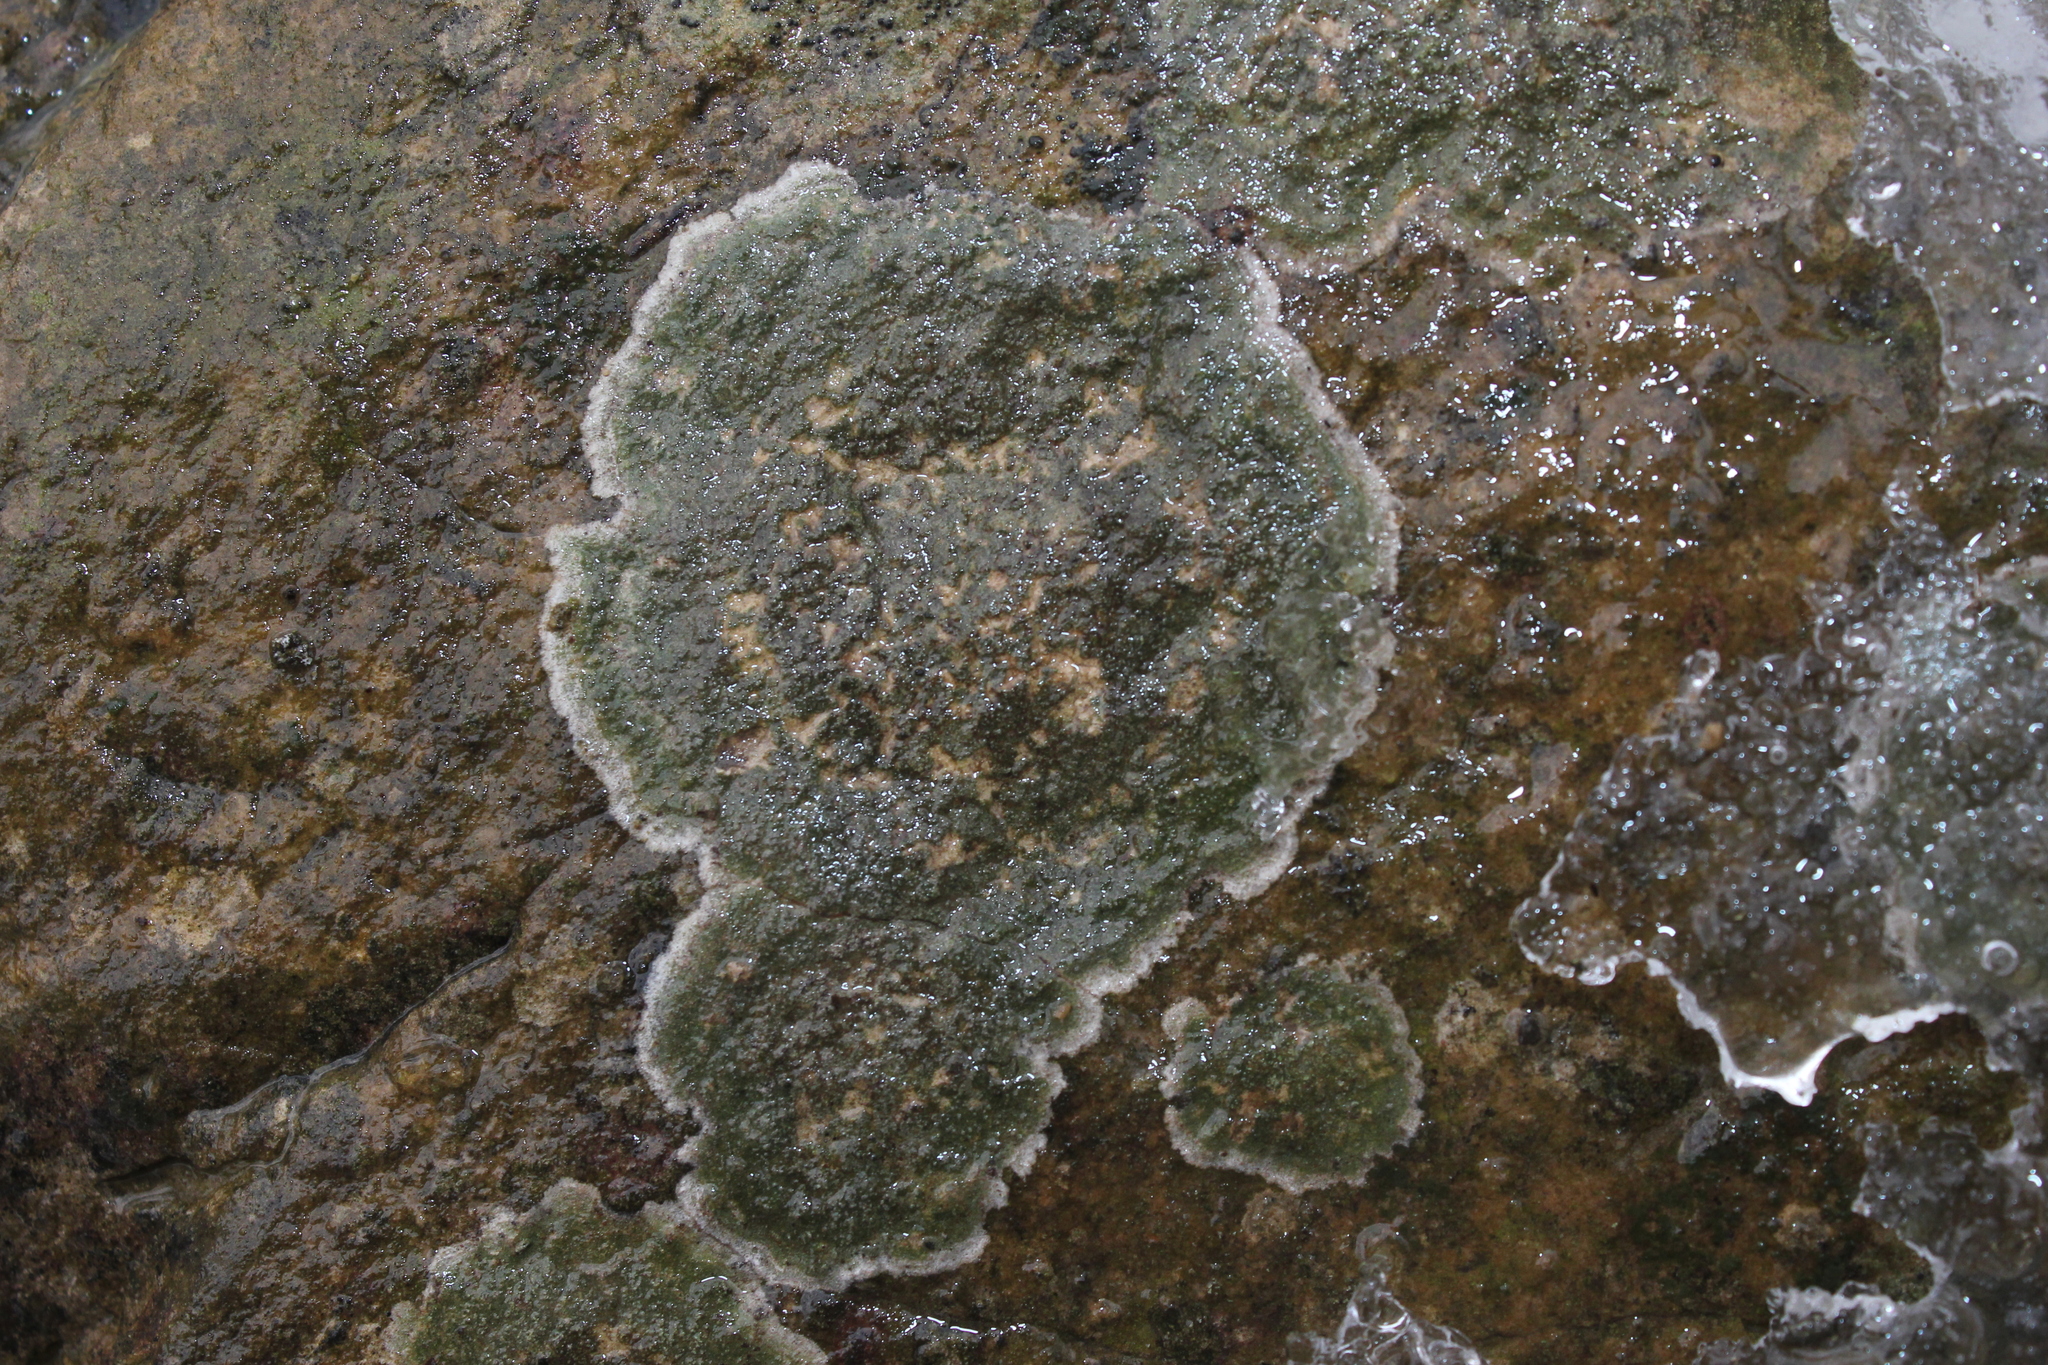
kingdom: Fungi
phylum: Ascomycota
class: Lecanoromycetes
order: Lecanorales
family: Ramalinaceae
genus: Bacidina
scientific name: Bacidina egenula
